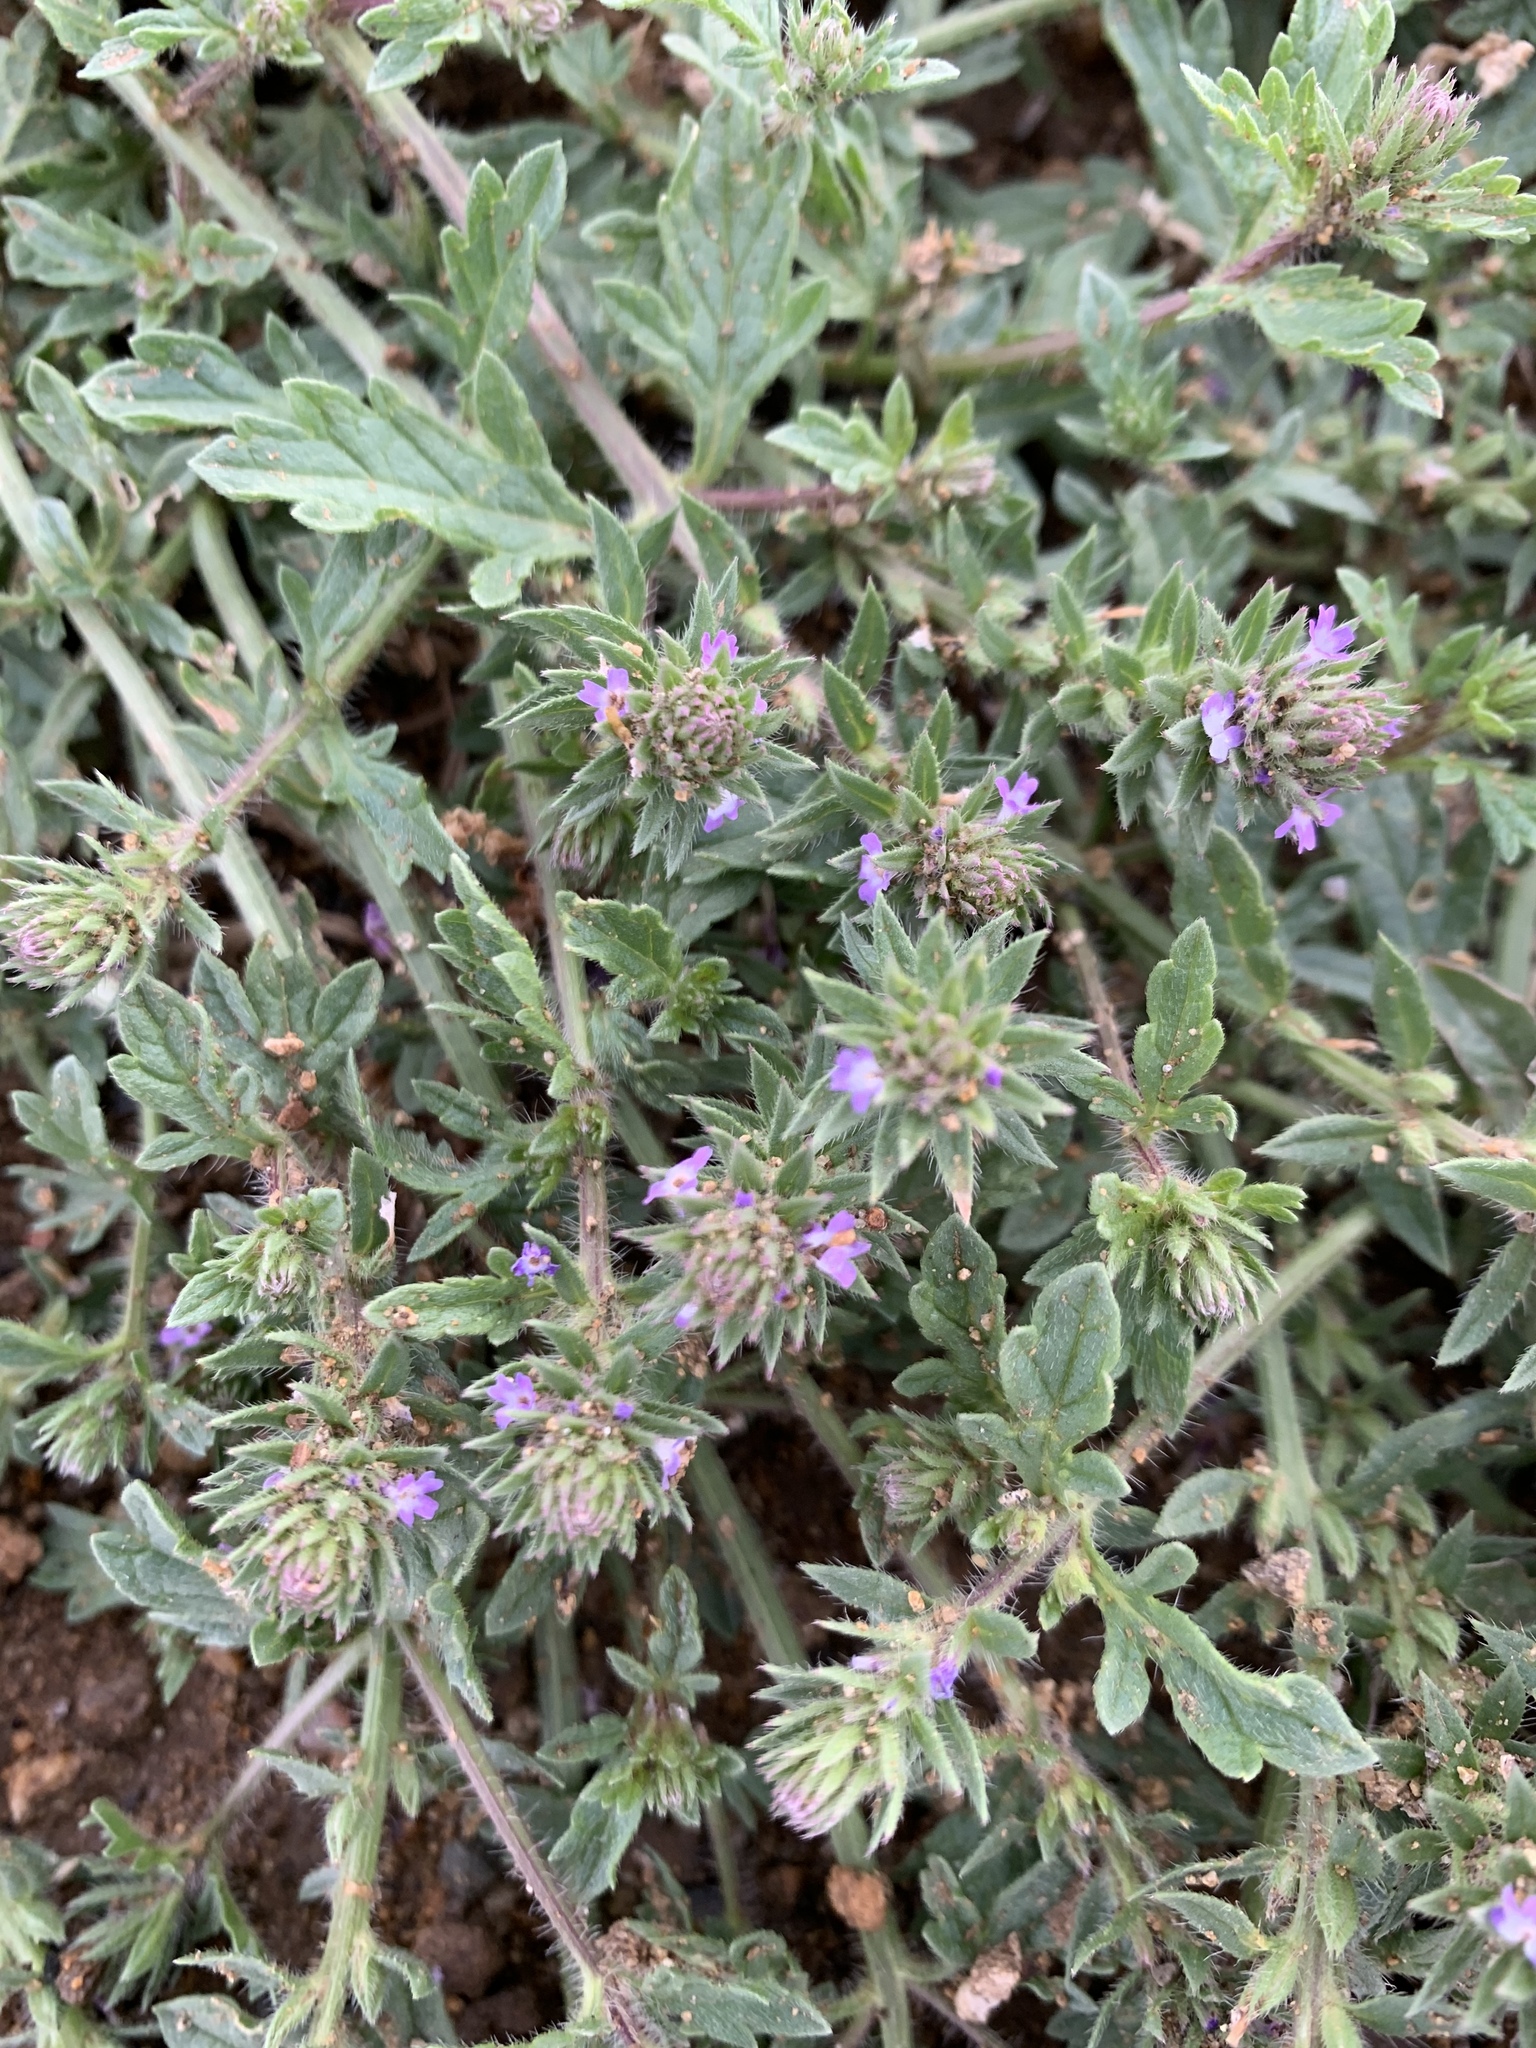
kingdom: Plantae
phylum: Tracheophyta
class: Magnoliopsida
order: Lamiales
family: Verbenaceae
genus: Verbena
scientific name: Verbena bracteata
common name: Bracted vervain
